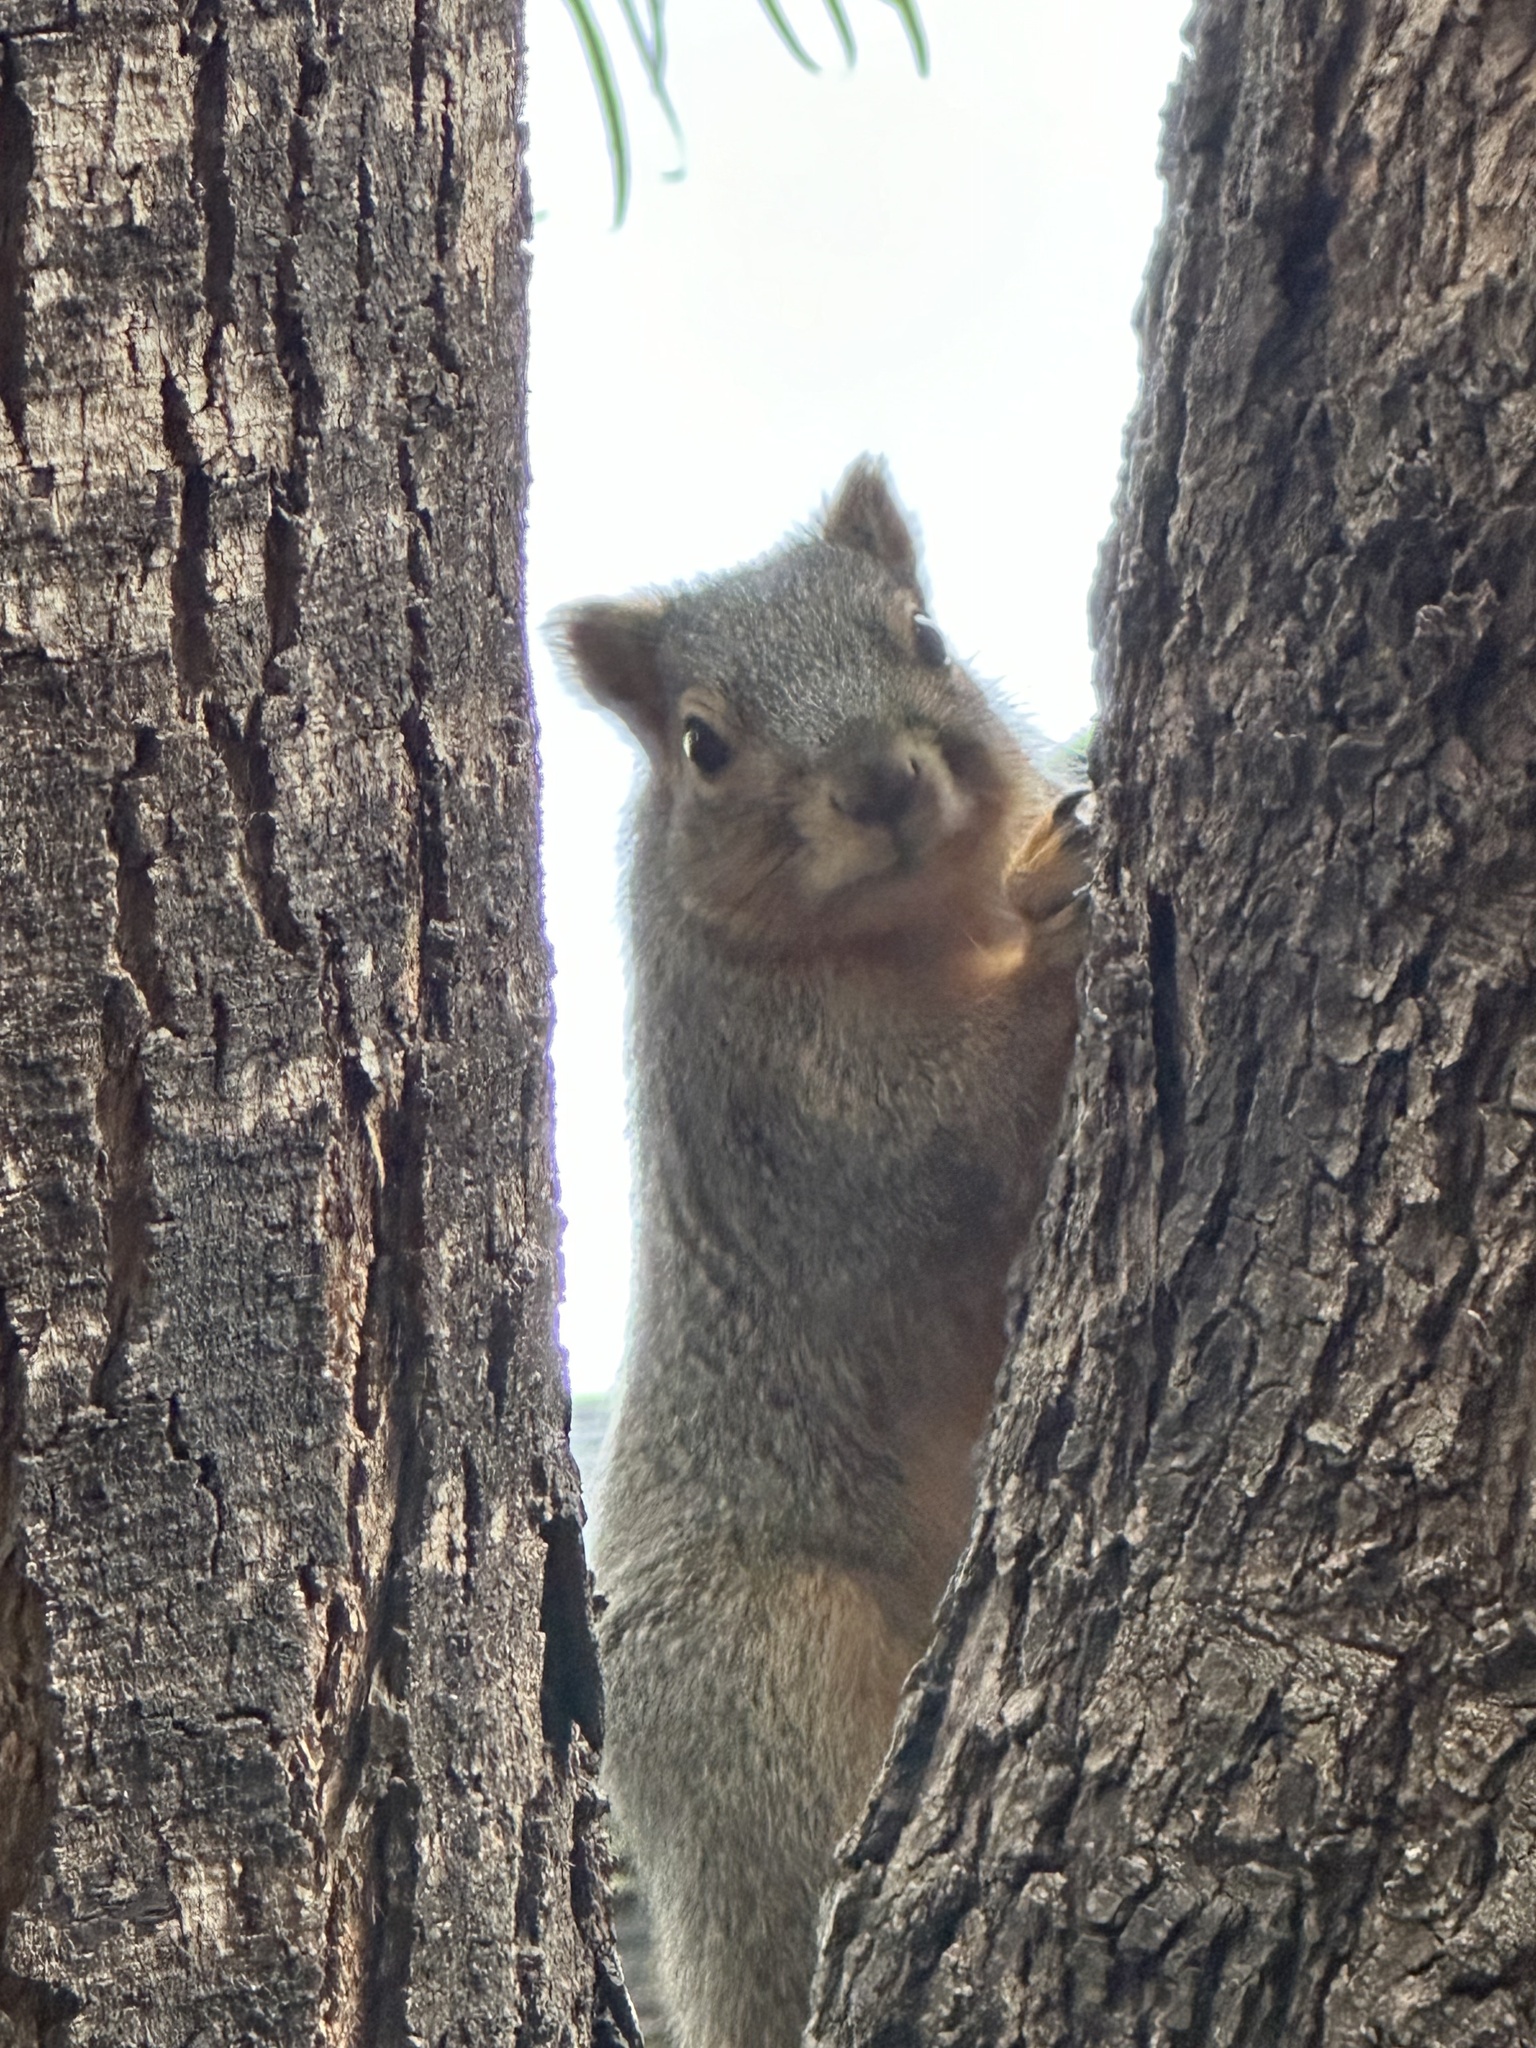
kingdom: Animalia
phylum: Chordata
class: Mammalia
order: Rodentia
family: Sciuridae
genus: Sciurus
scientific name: Sciurus niger
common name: Fox squirrel
